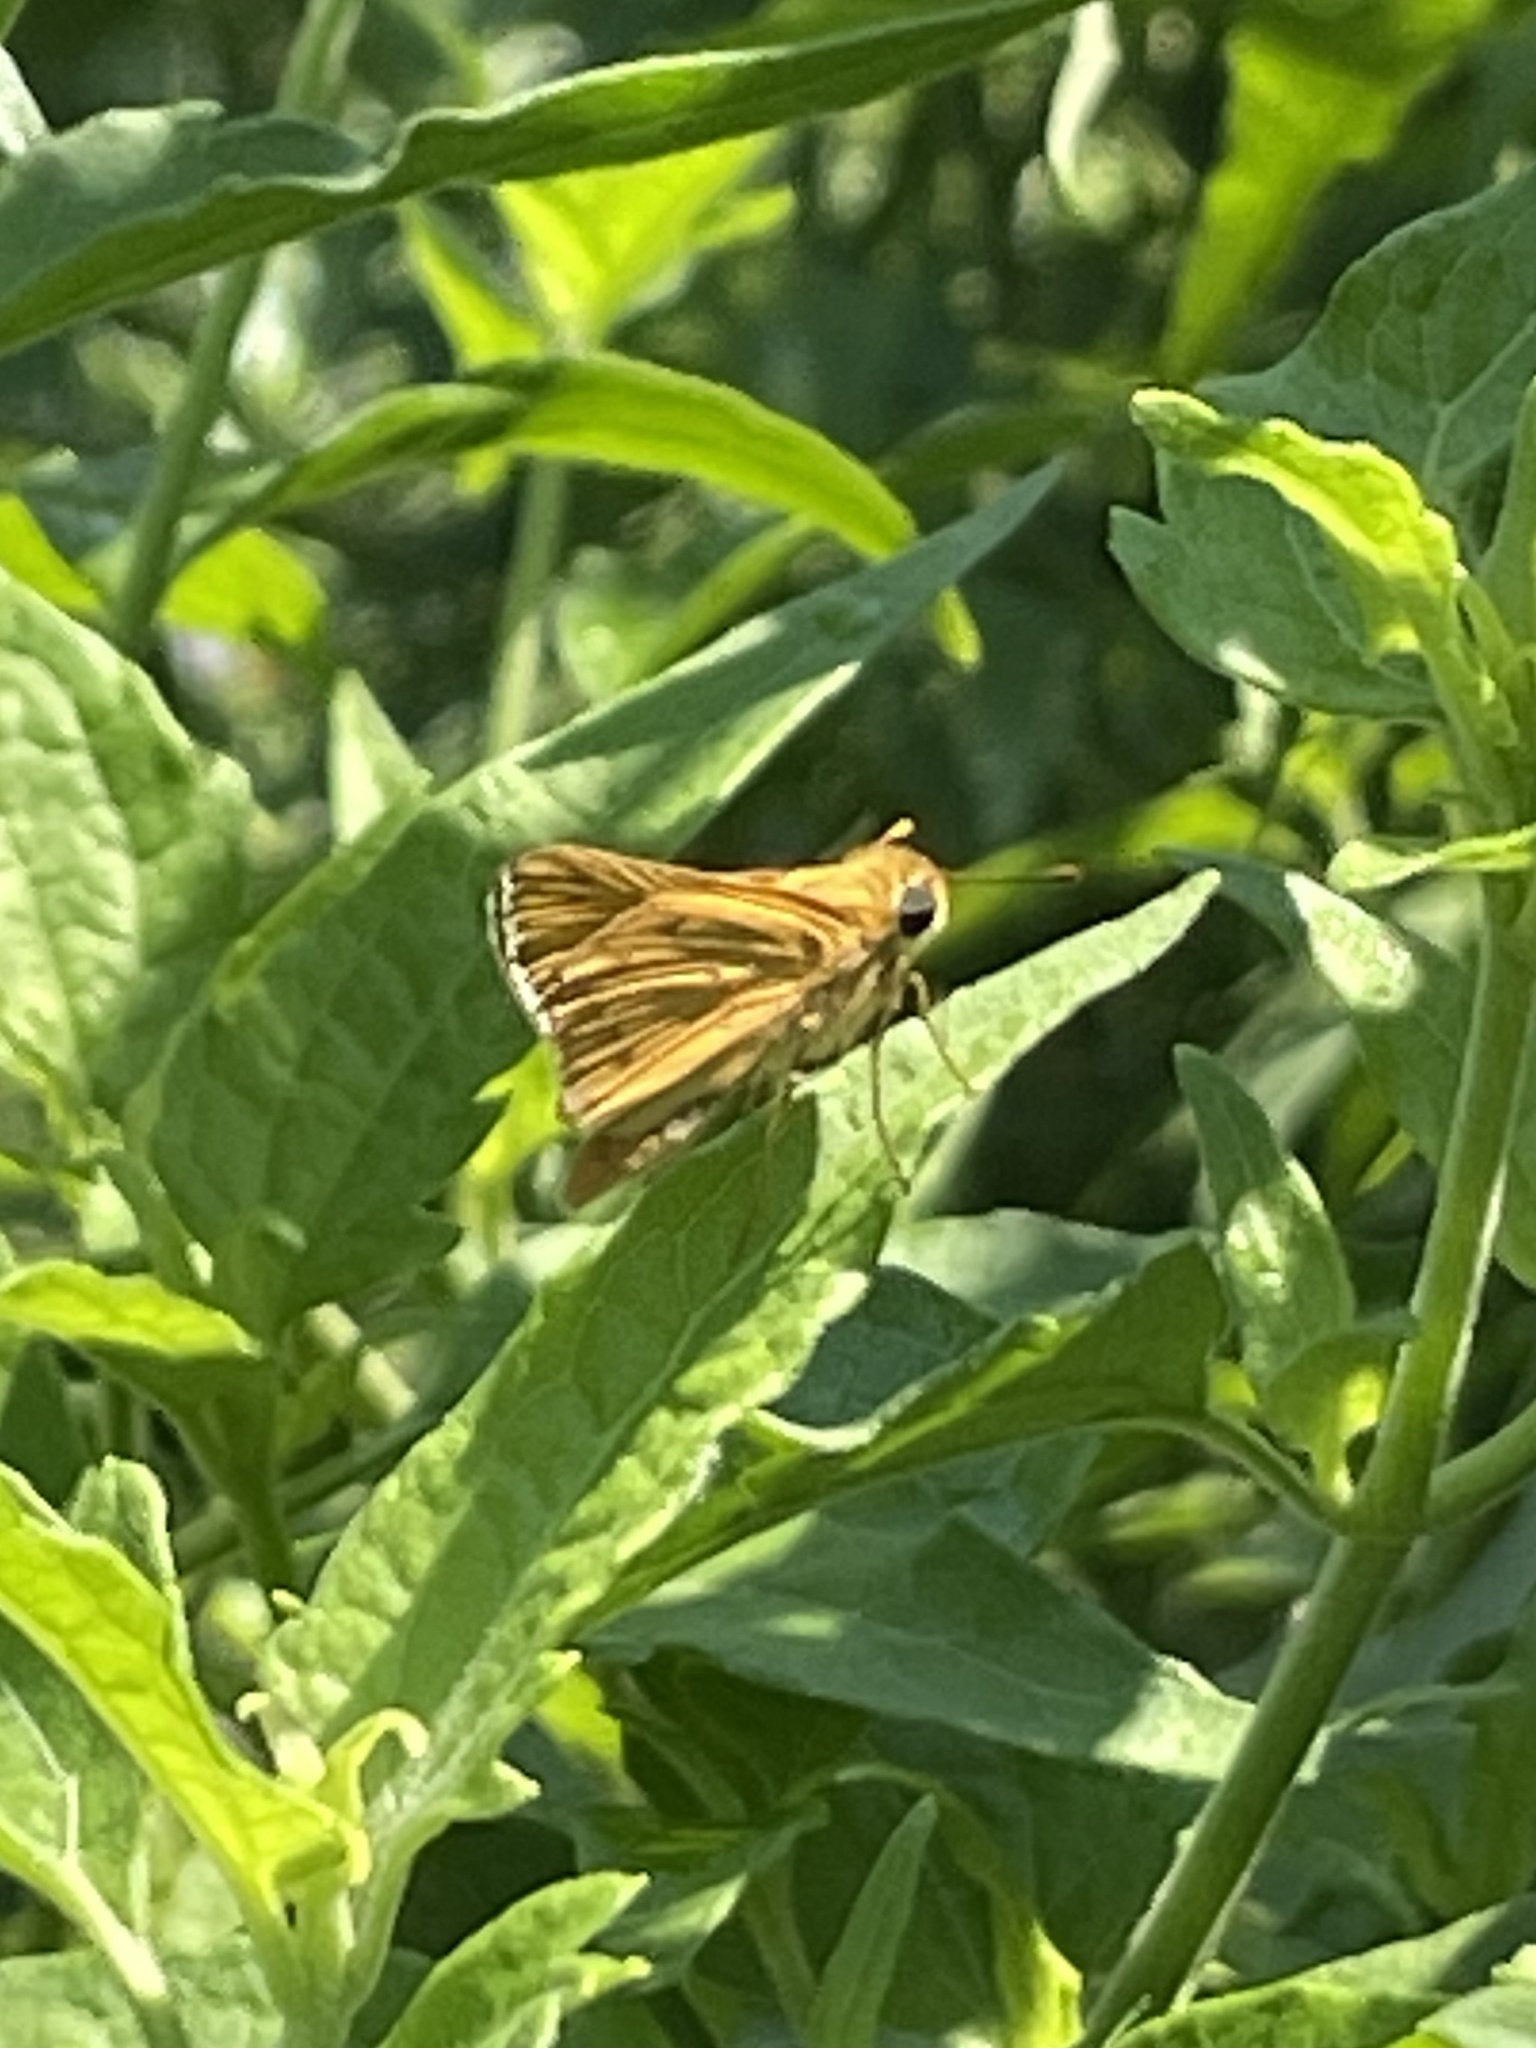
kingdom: Animalia
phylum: Arthropoda
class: Insecta
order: Lepidoptera
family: Hesperiidae
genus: Hylephila
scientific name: Hylephila phyleus
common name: Fiery skipper
